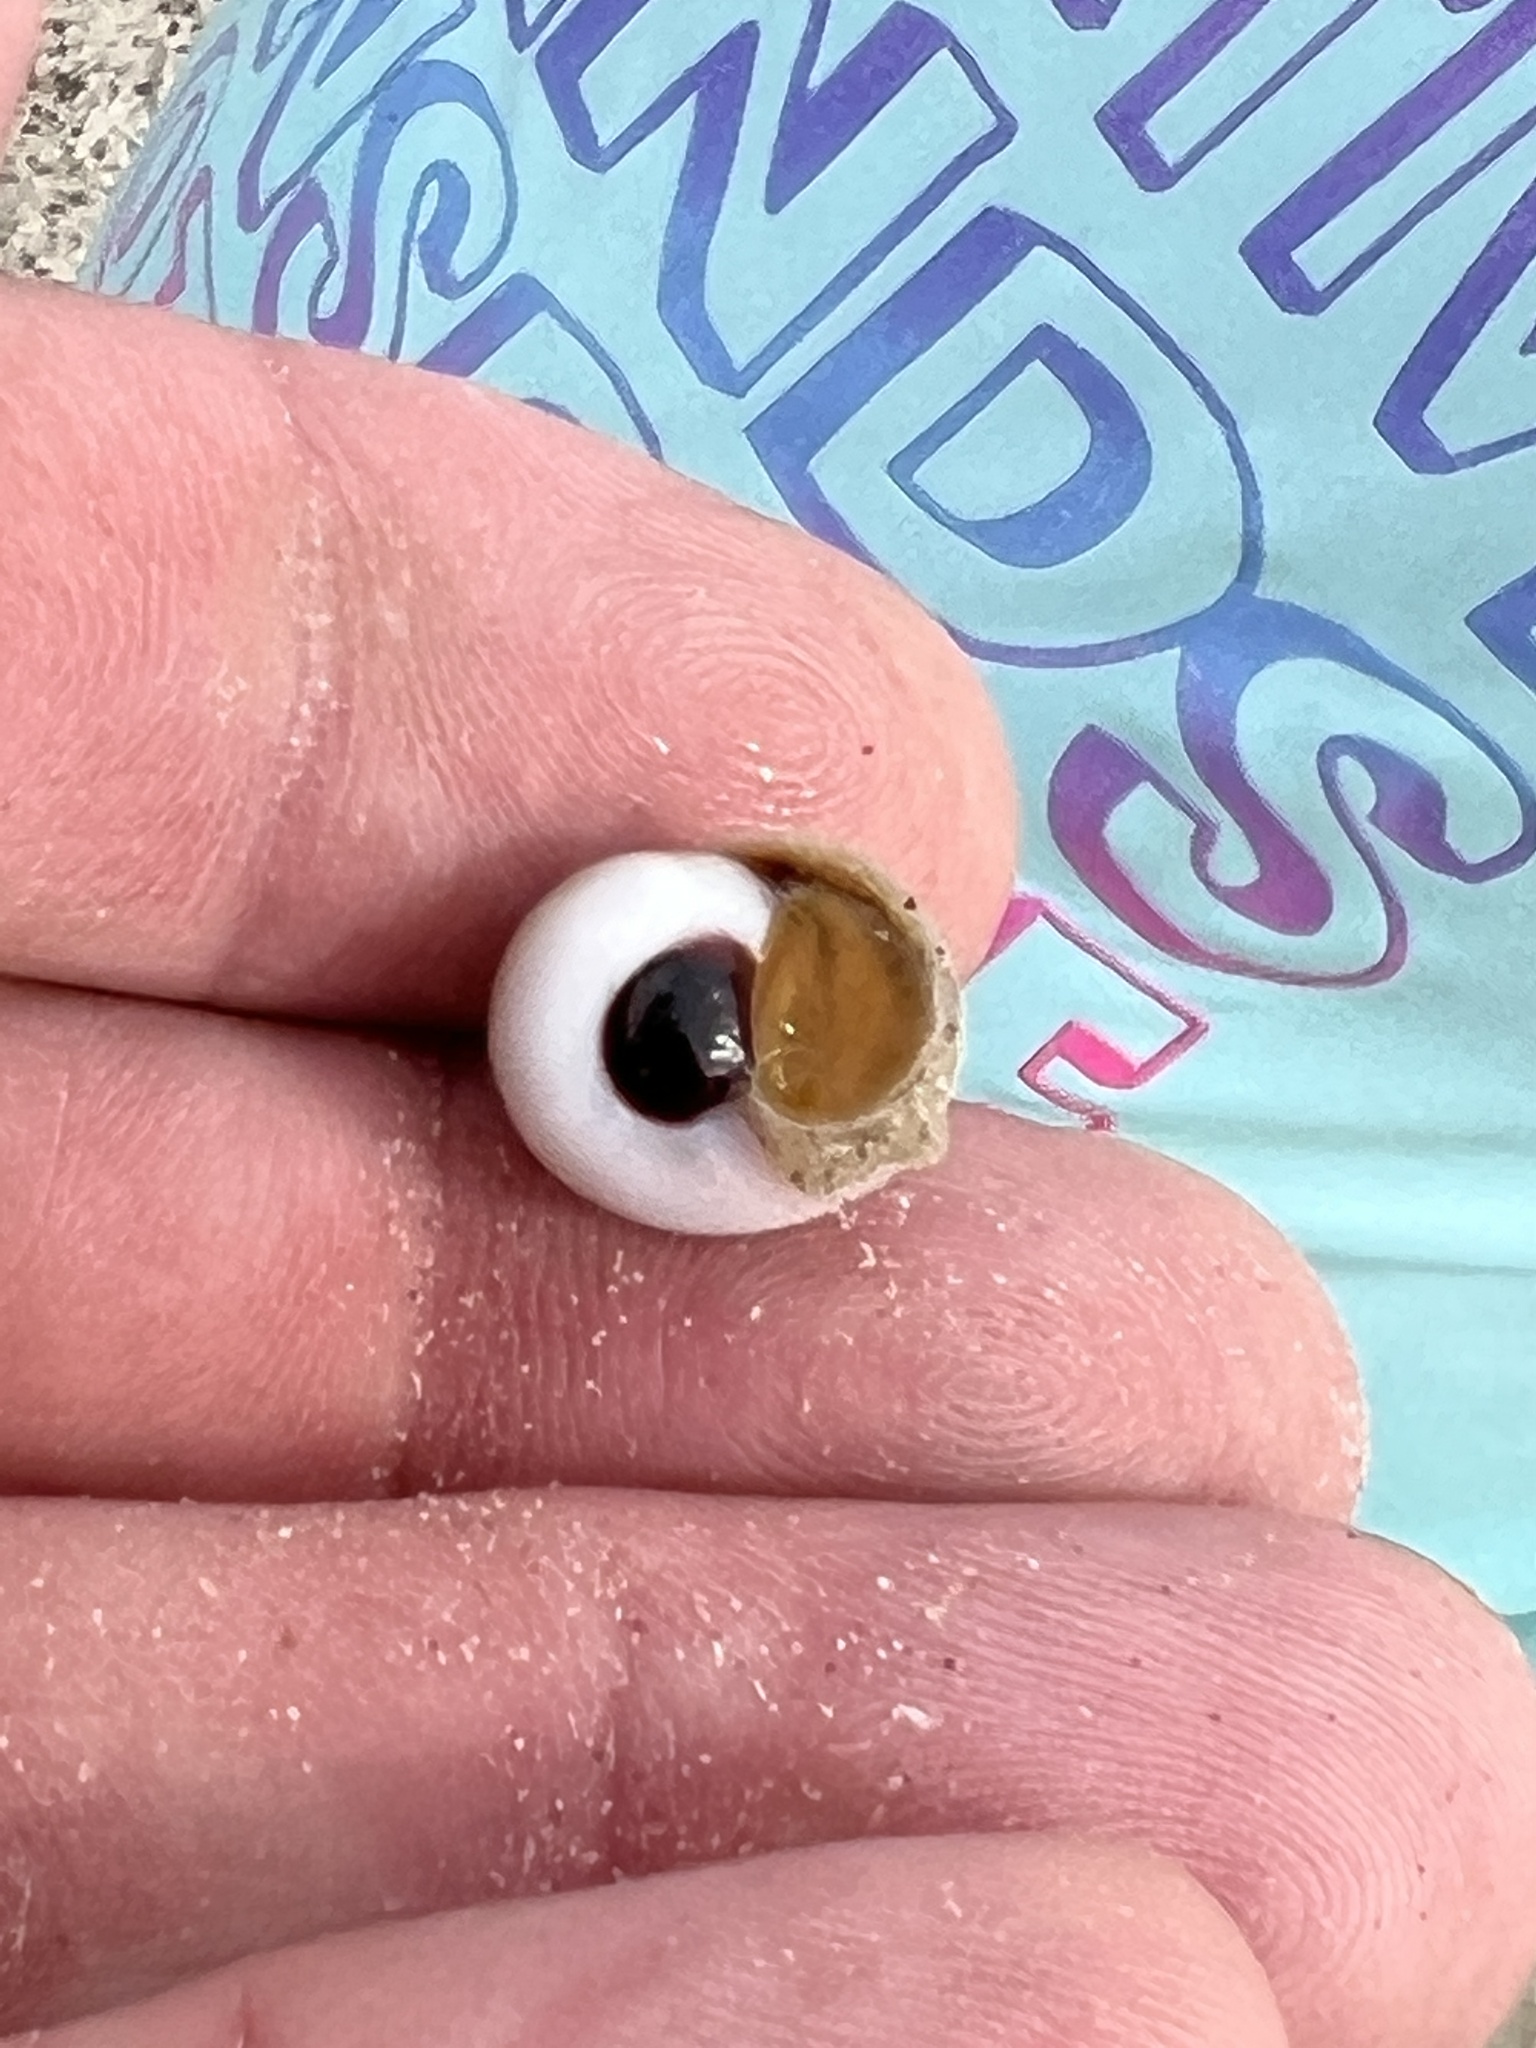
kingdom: Animalia
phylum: Mollusca
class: Gastropoda
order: Littorinimorpha
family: Naticidae
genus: Neverita
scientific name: Neverita duplicata
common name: Lobed moonsnail
